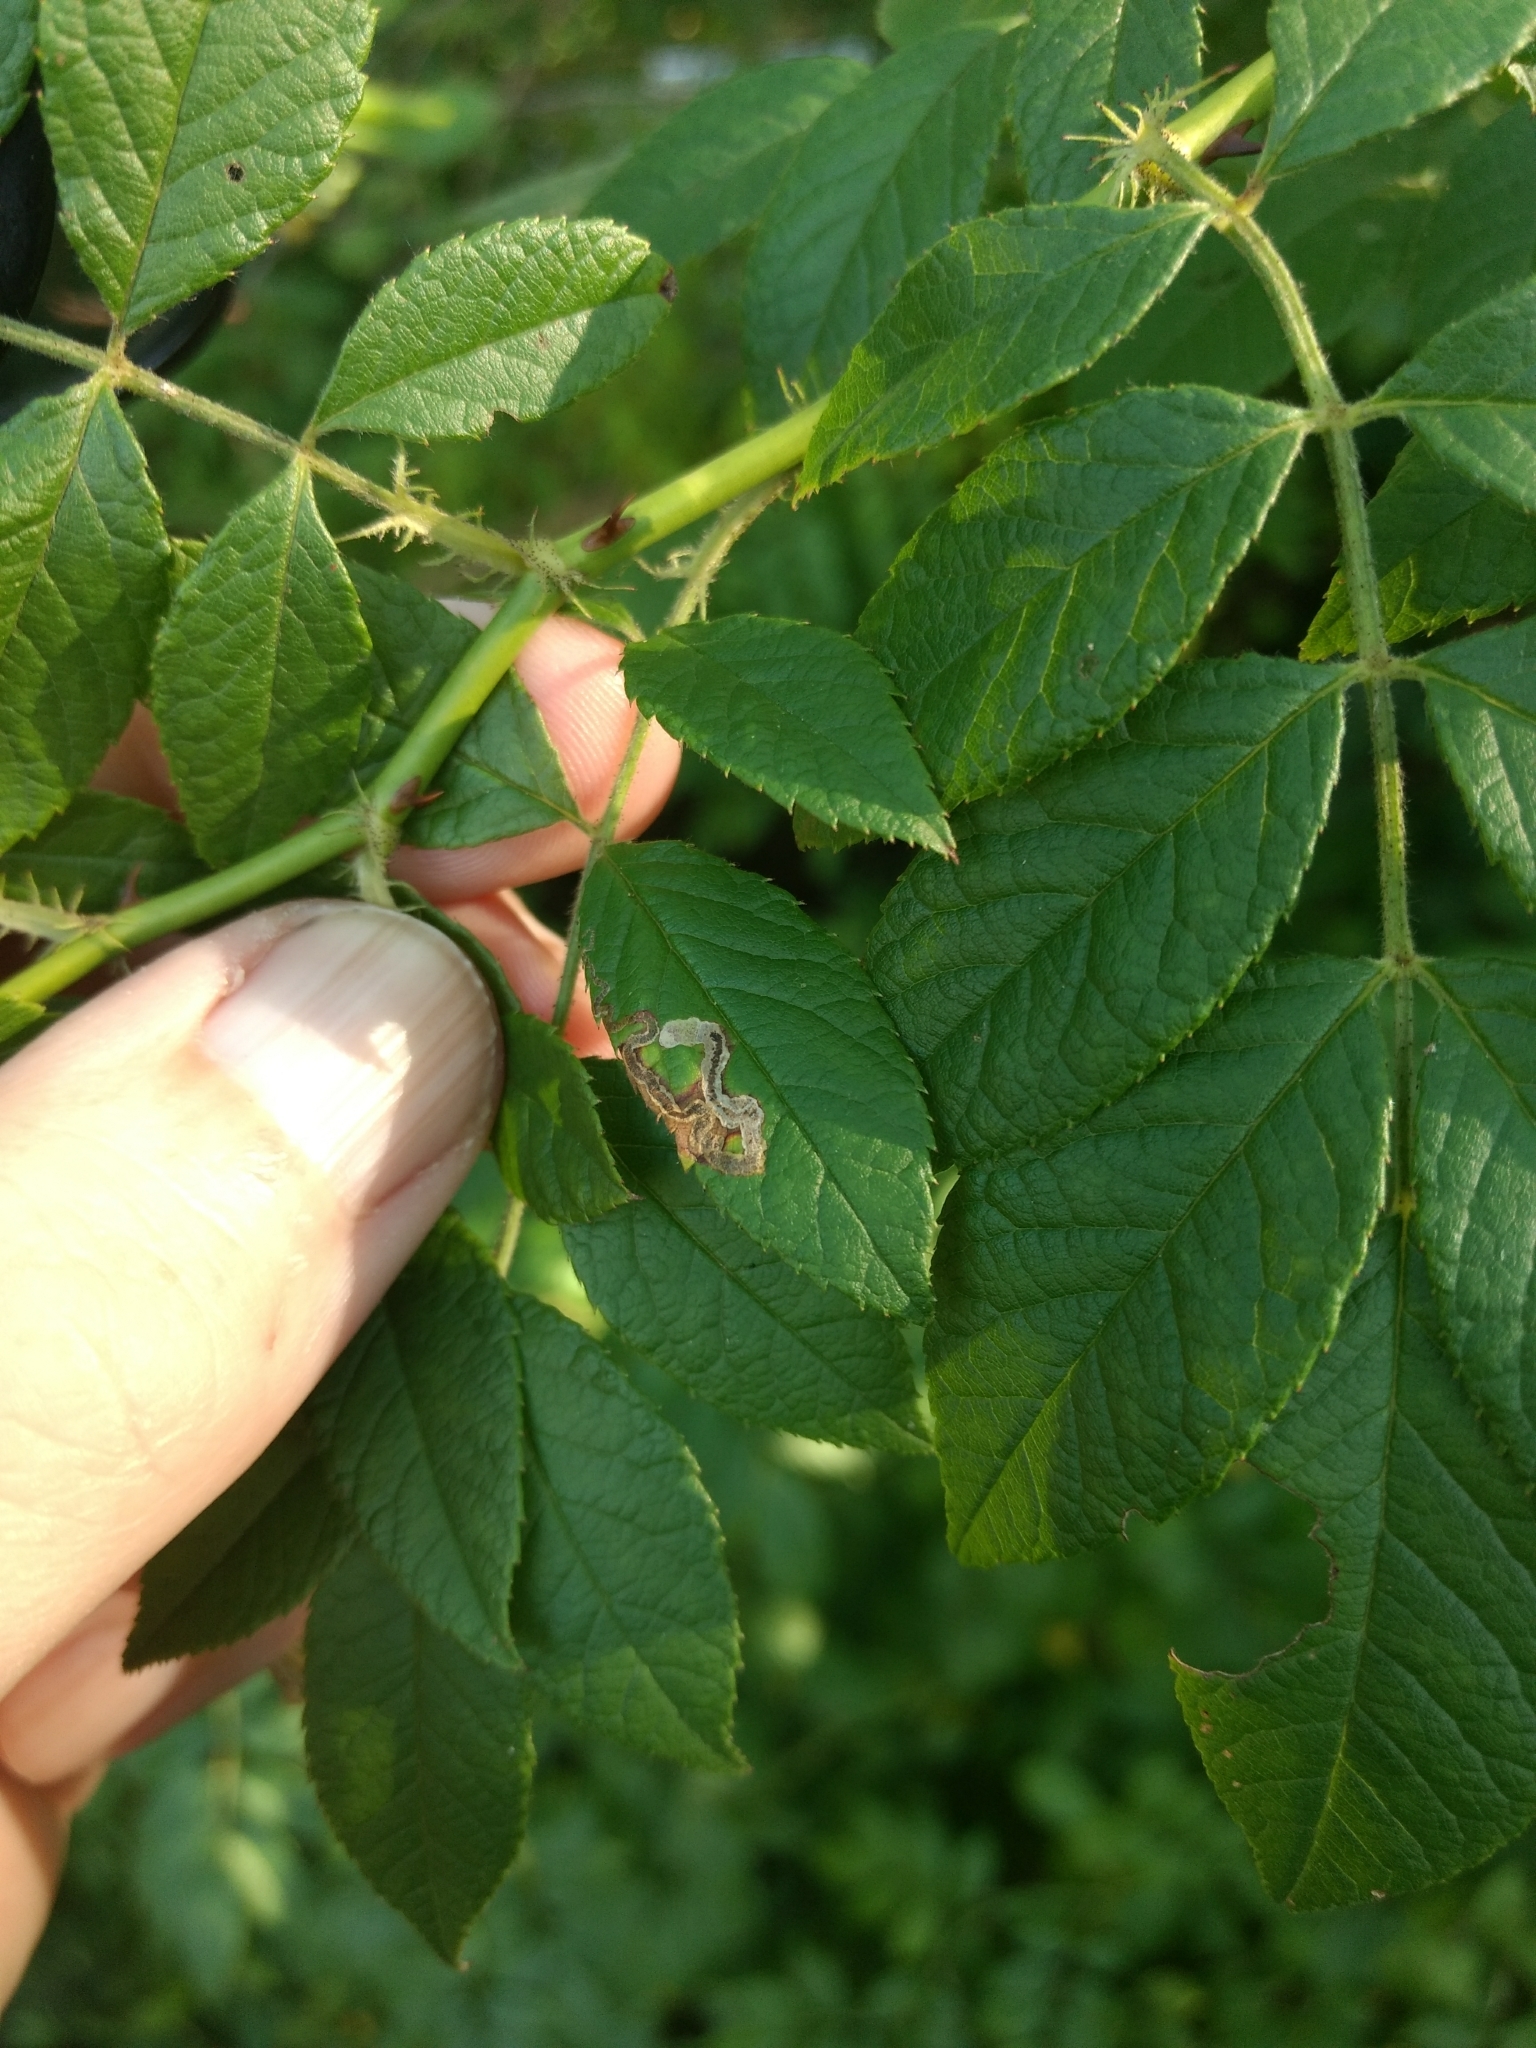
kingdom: Animalia
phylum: Arthropoda
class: Insecta
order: Lepidoptera
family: Nepticulidae
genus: Stigmella
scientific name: Stigmella
